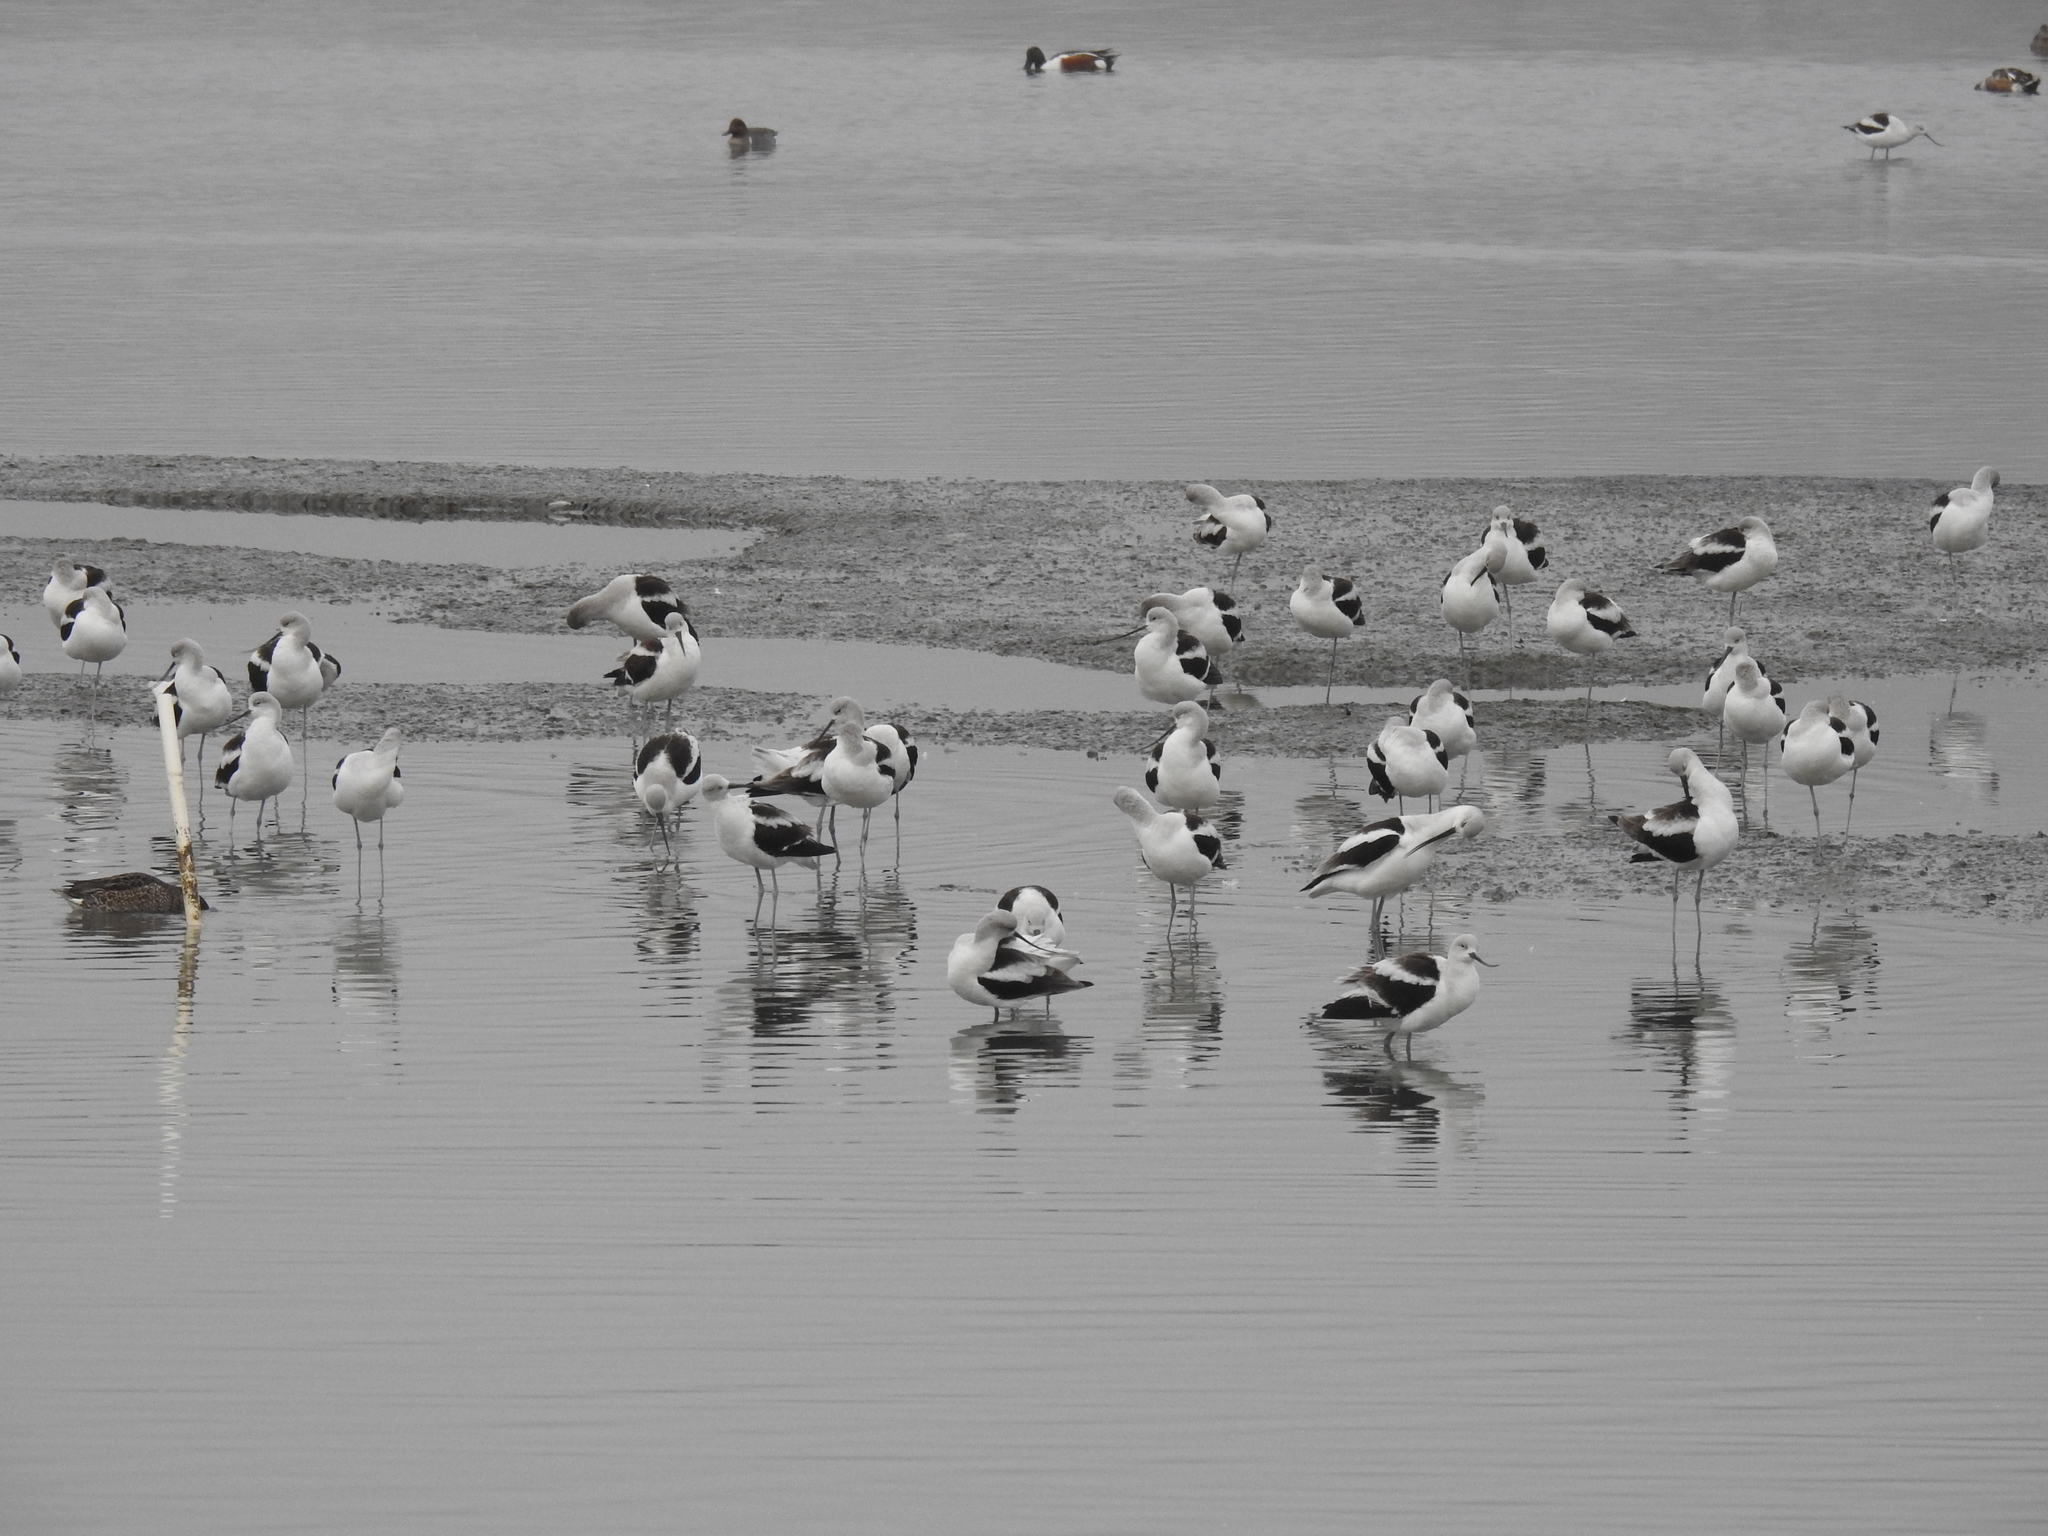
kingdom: Animalia
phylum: Chordata
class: Aves
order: Charadriiformes
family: Recurvirostridae
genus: Recurvirostra
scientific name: Recurvirostra americana
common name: American avocet
